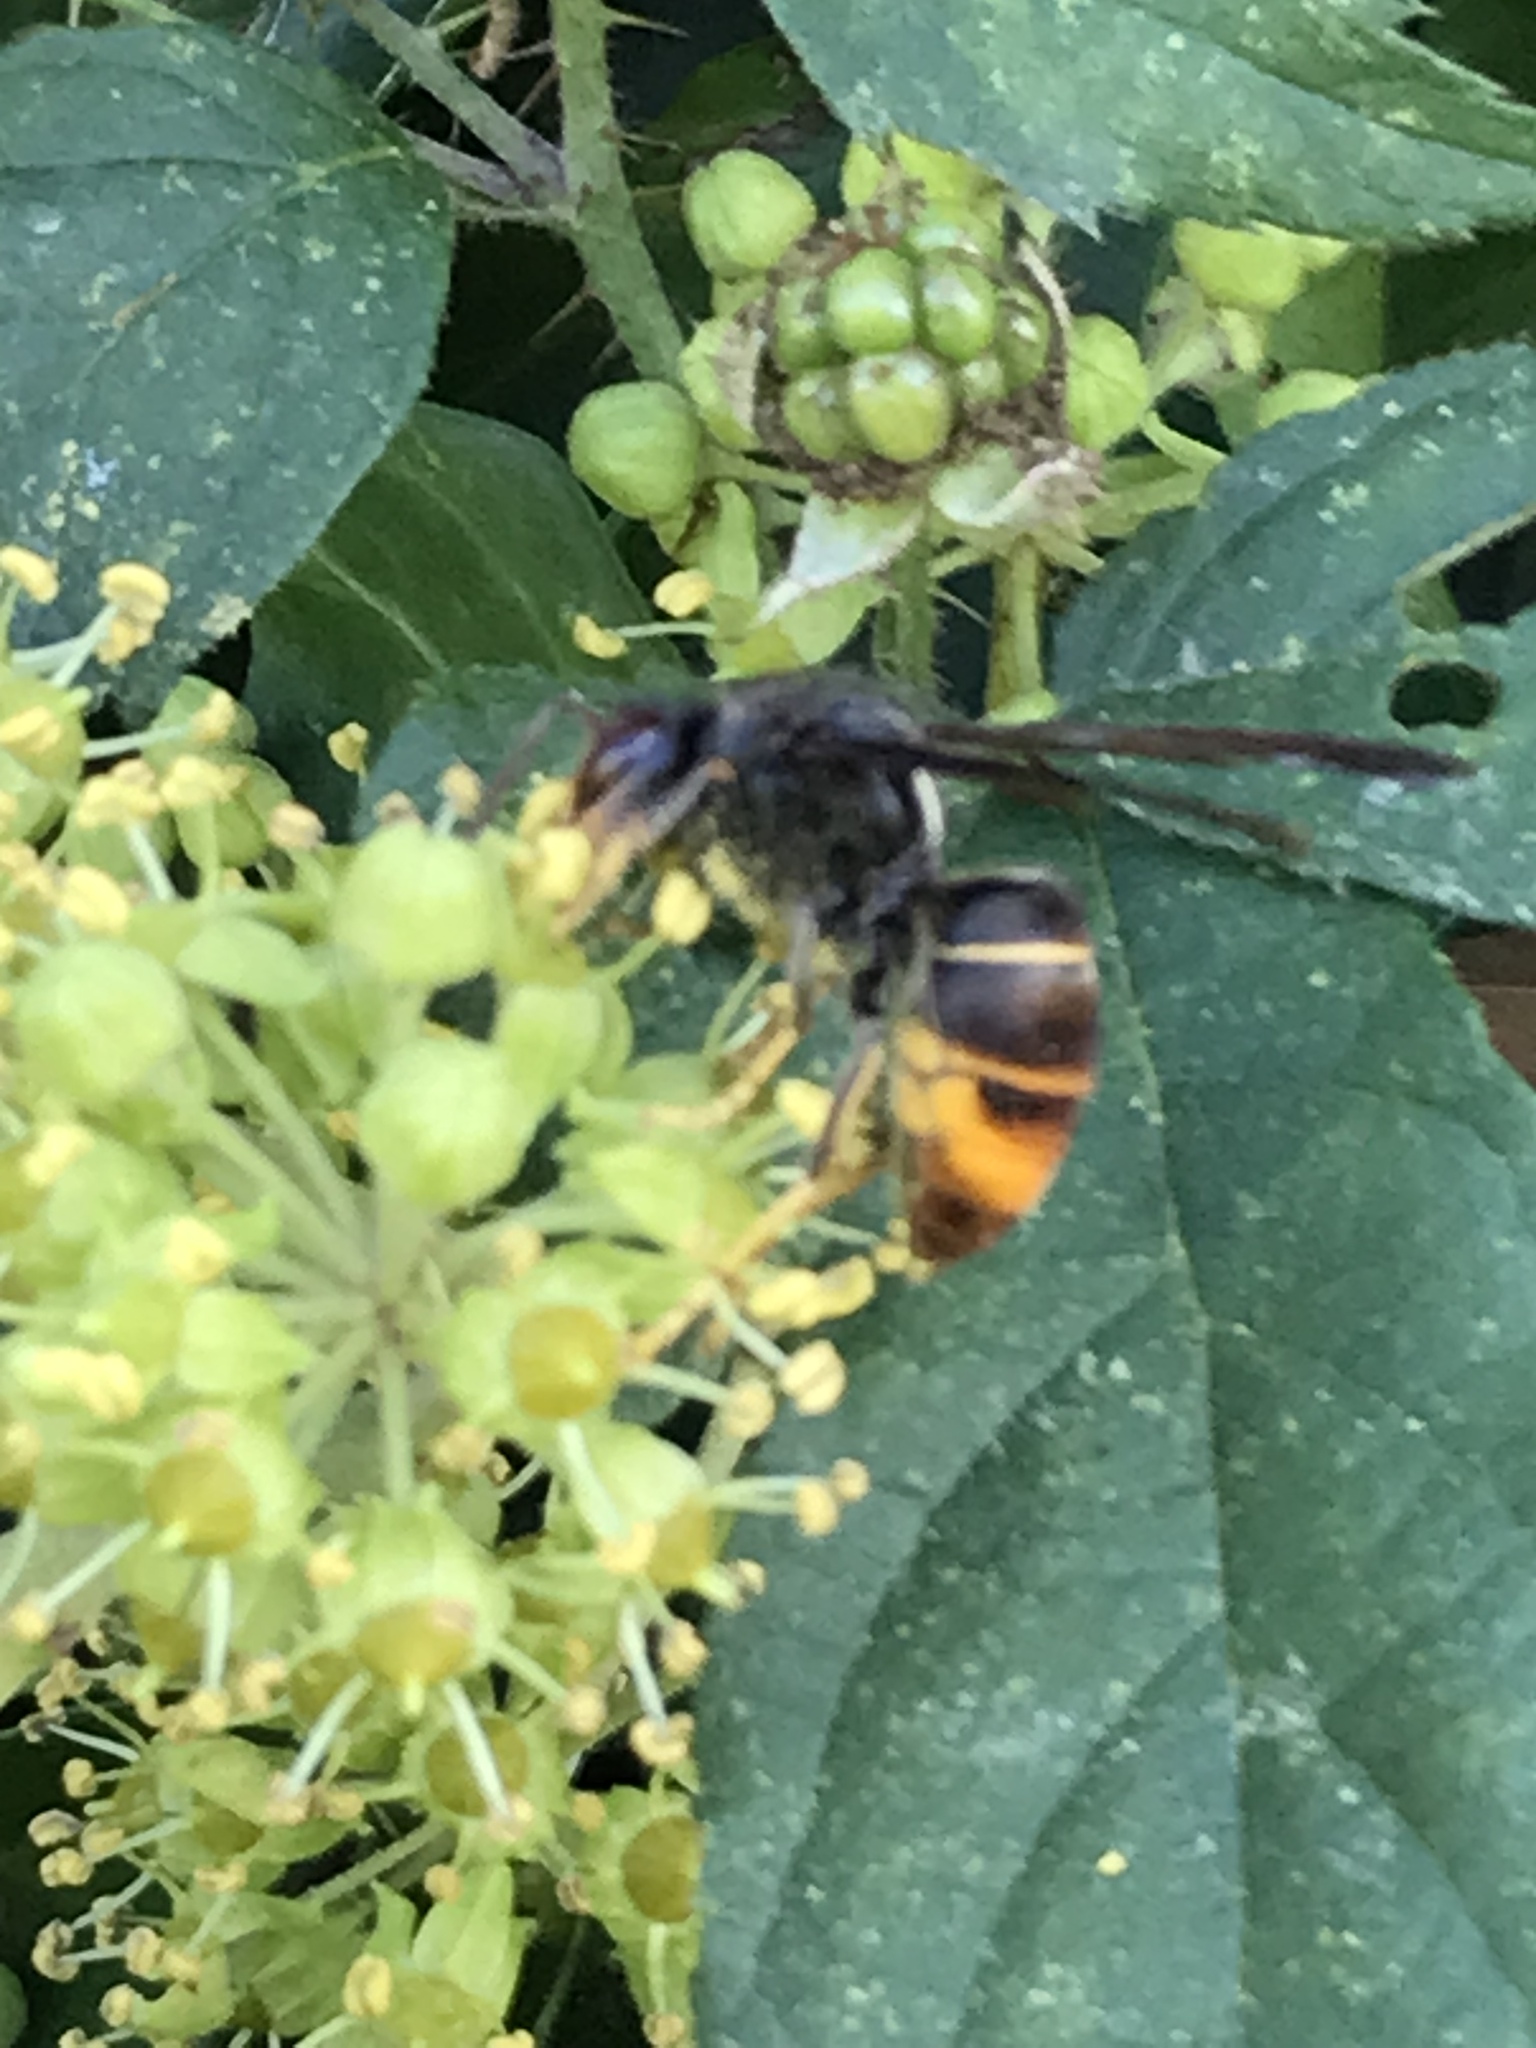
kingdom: Animalia
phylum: Arthropoda
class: Insecta
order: Hymenoptera
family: Vespidae
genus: Vespa
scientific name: Vespa velutina
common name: Asian hornet
